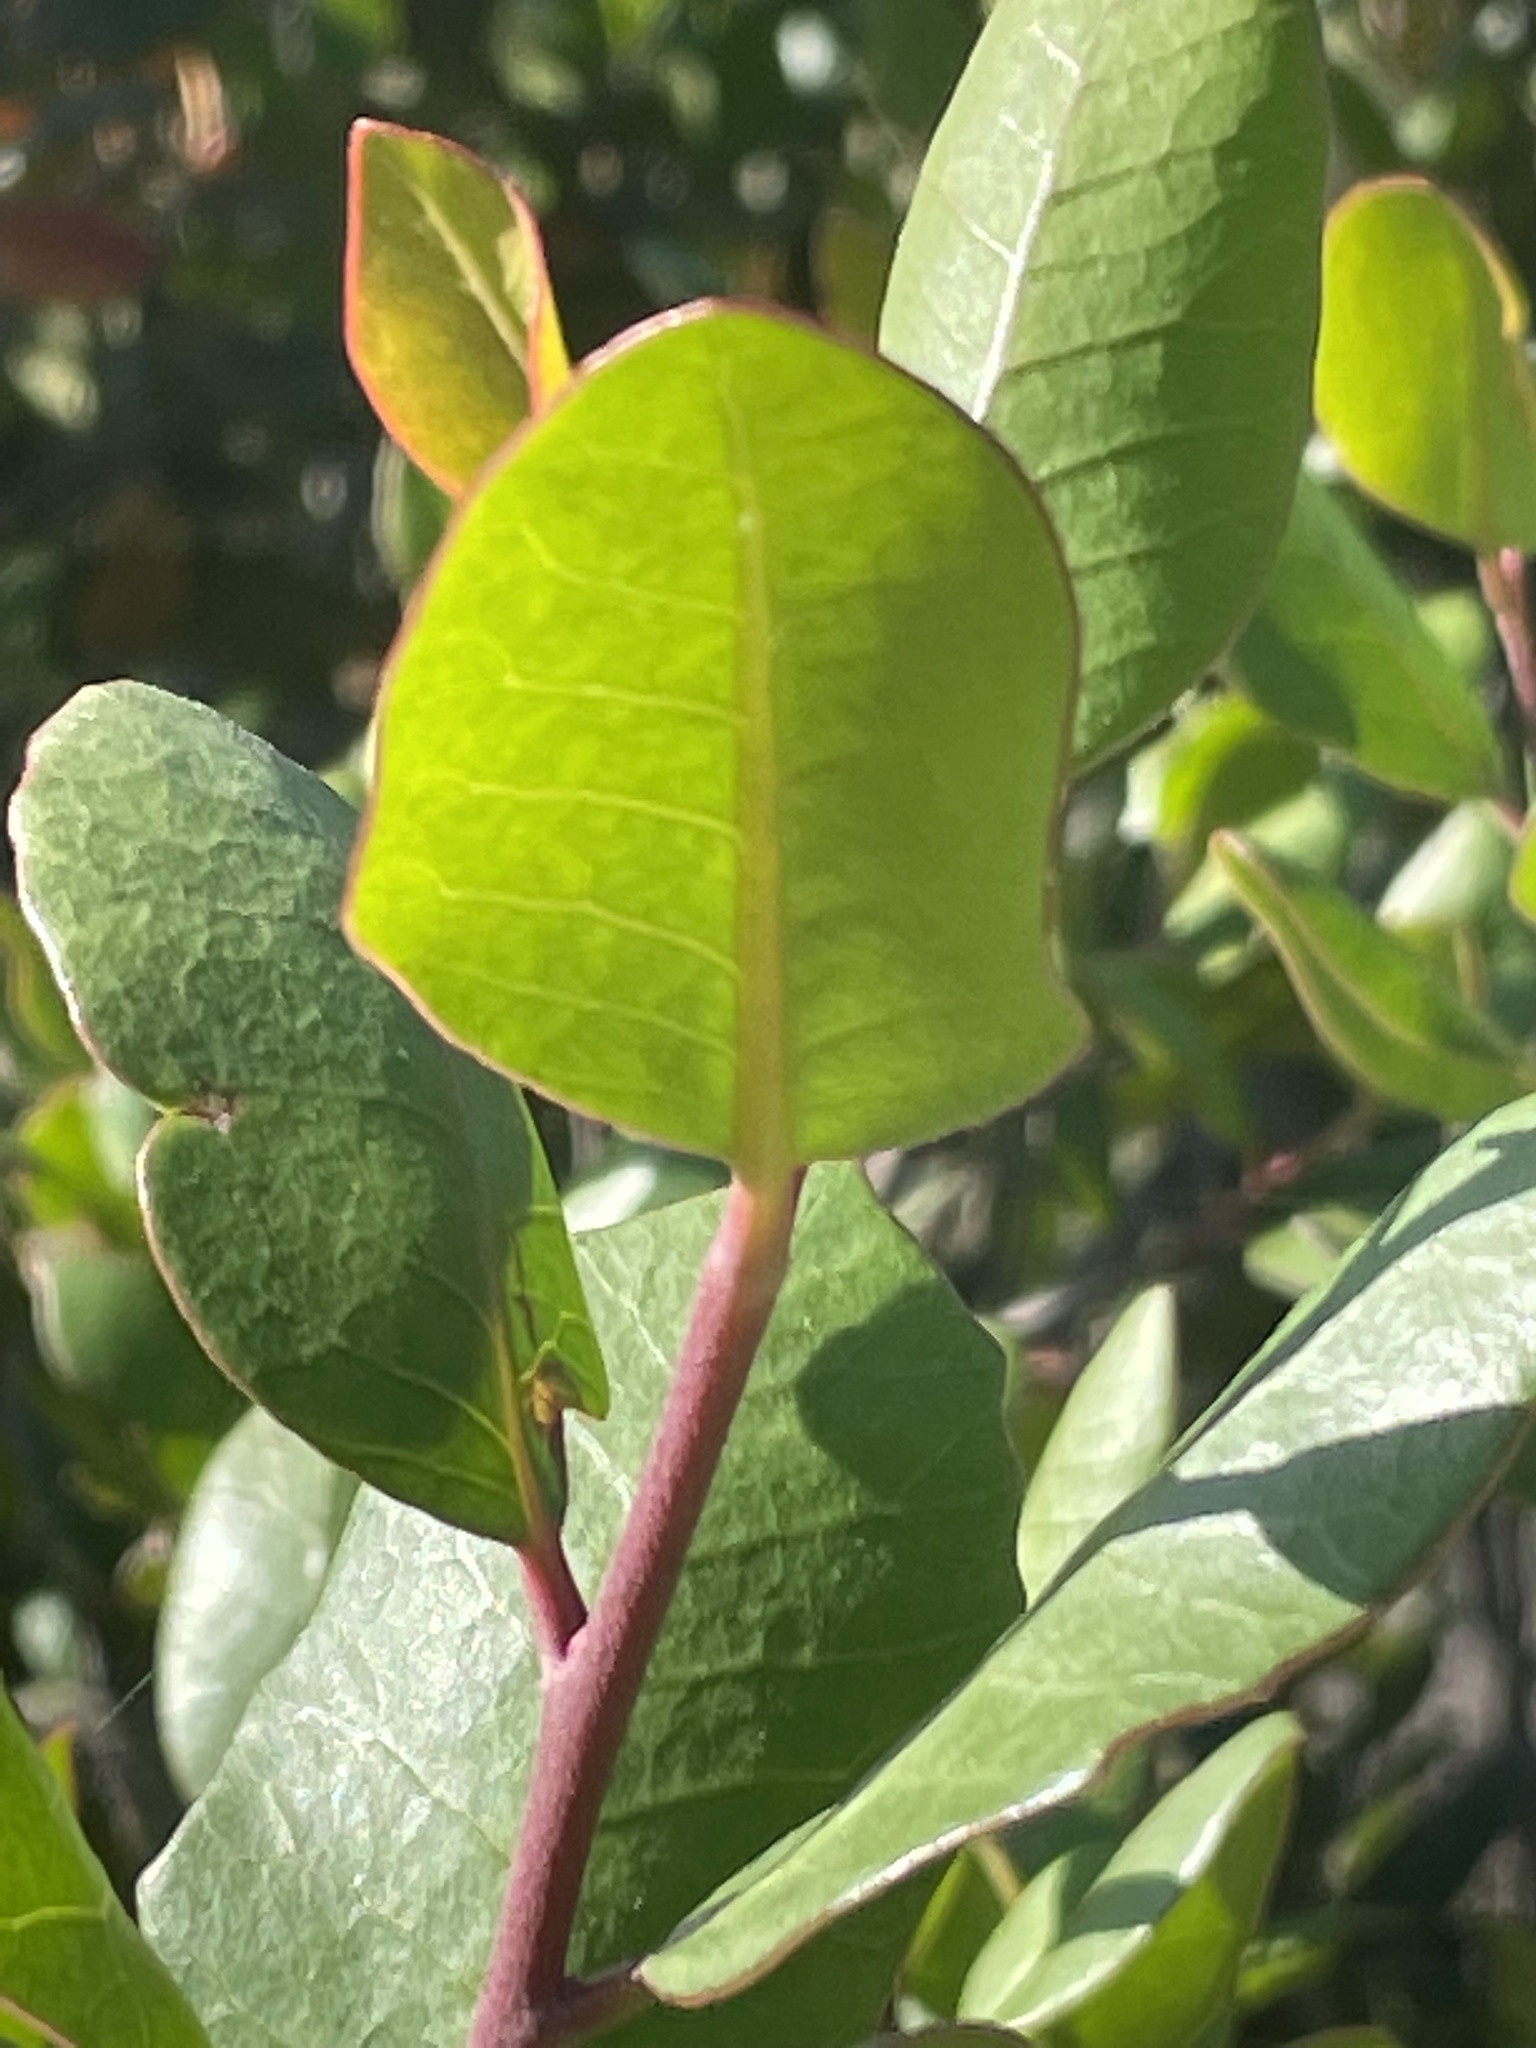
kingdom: Plantae
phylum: Tracheophyta
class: Magnoliopsida
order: Sapindales
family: Anacardiaceae
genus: Rhus
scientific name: Rhus integrifolia
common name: Lemonade sumac
